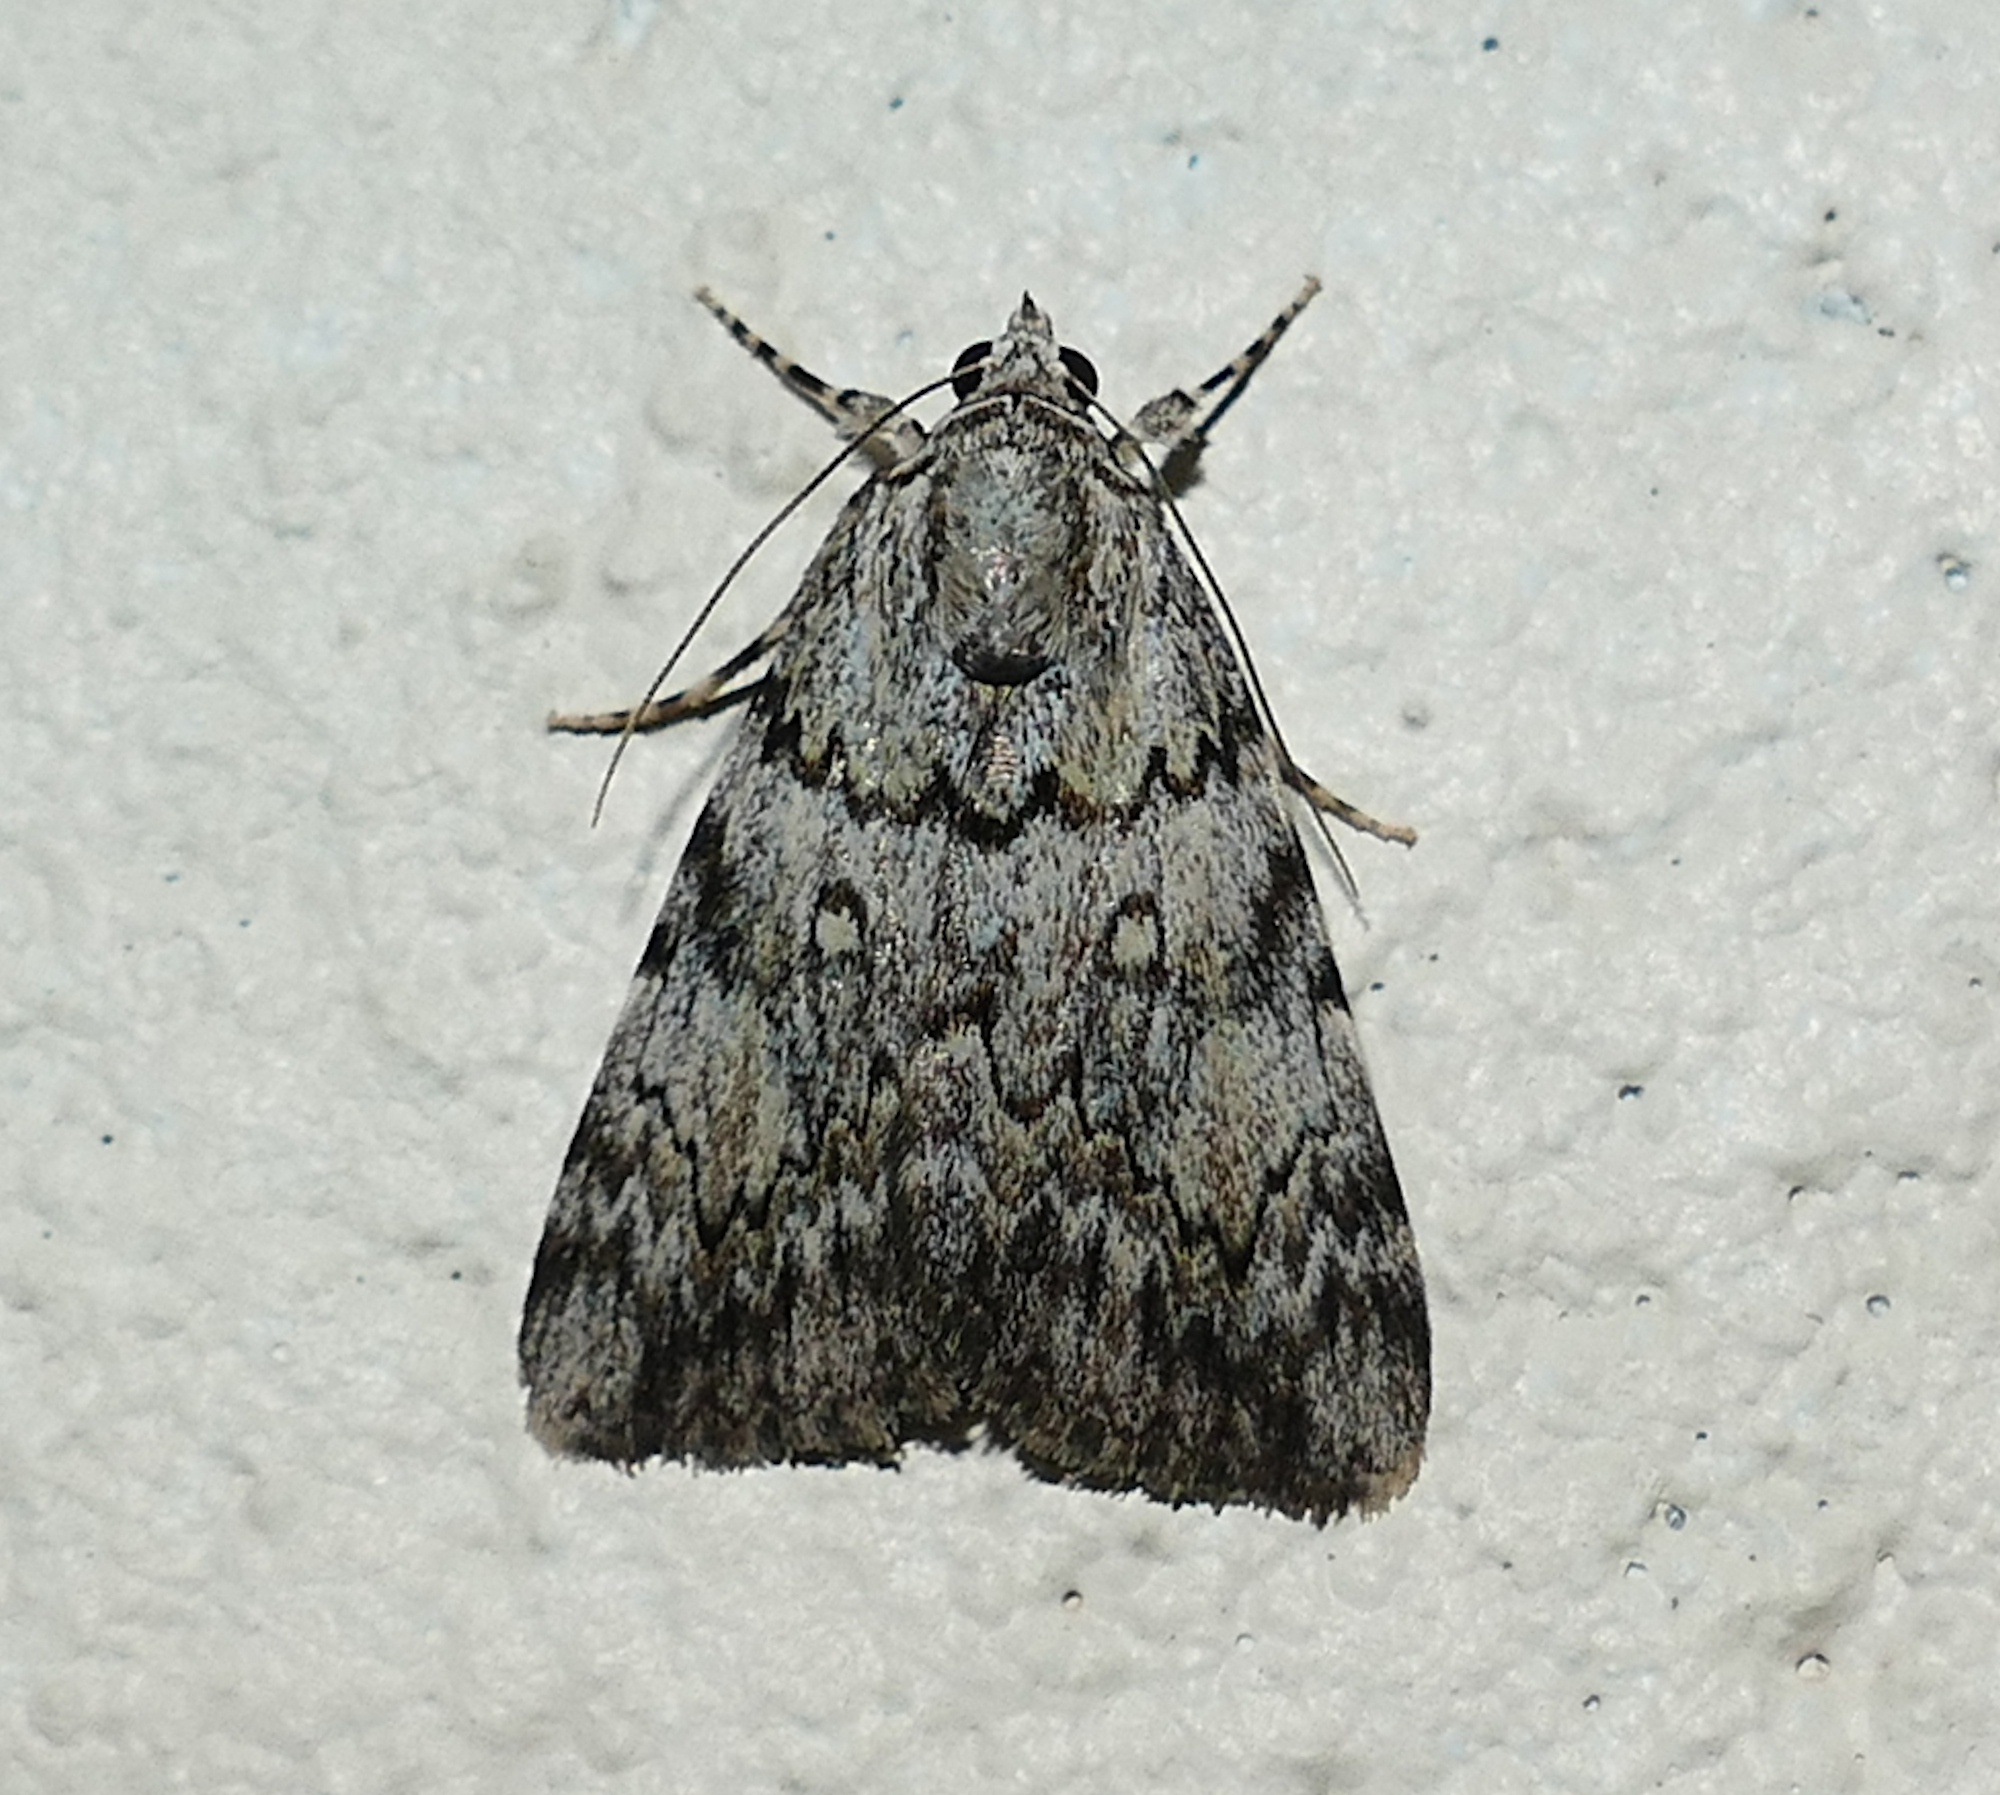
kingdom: Animalia
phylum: Arthropoda
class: Insecta
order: Lepidoptera
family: Erebidae
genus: Catocala
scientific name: Catocala amica
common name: Girlfriend underwing
